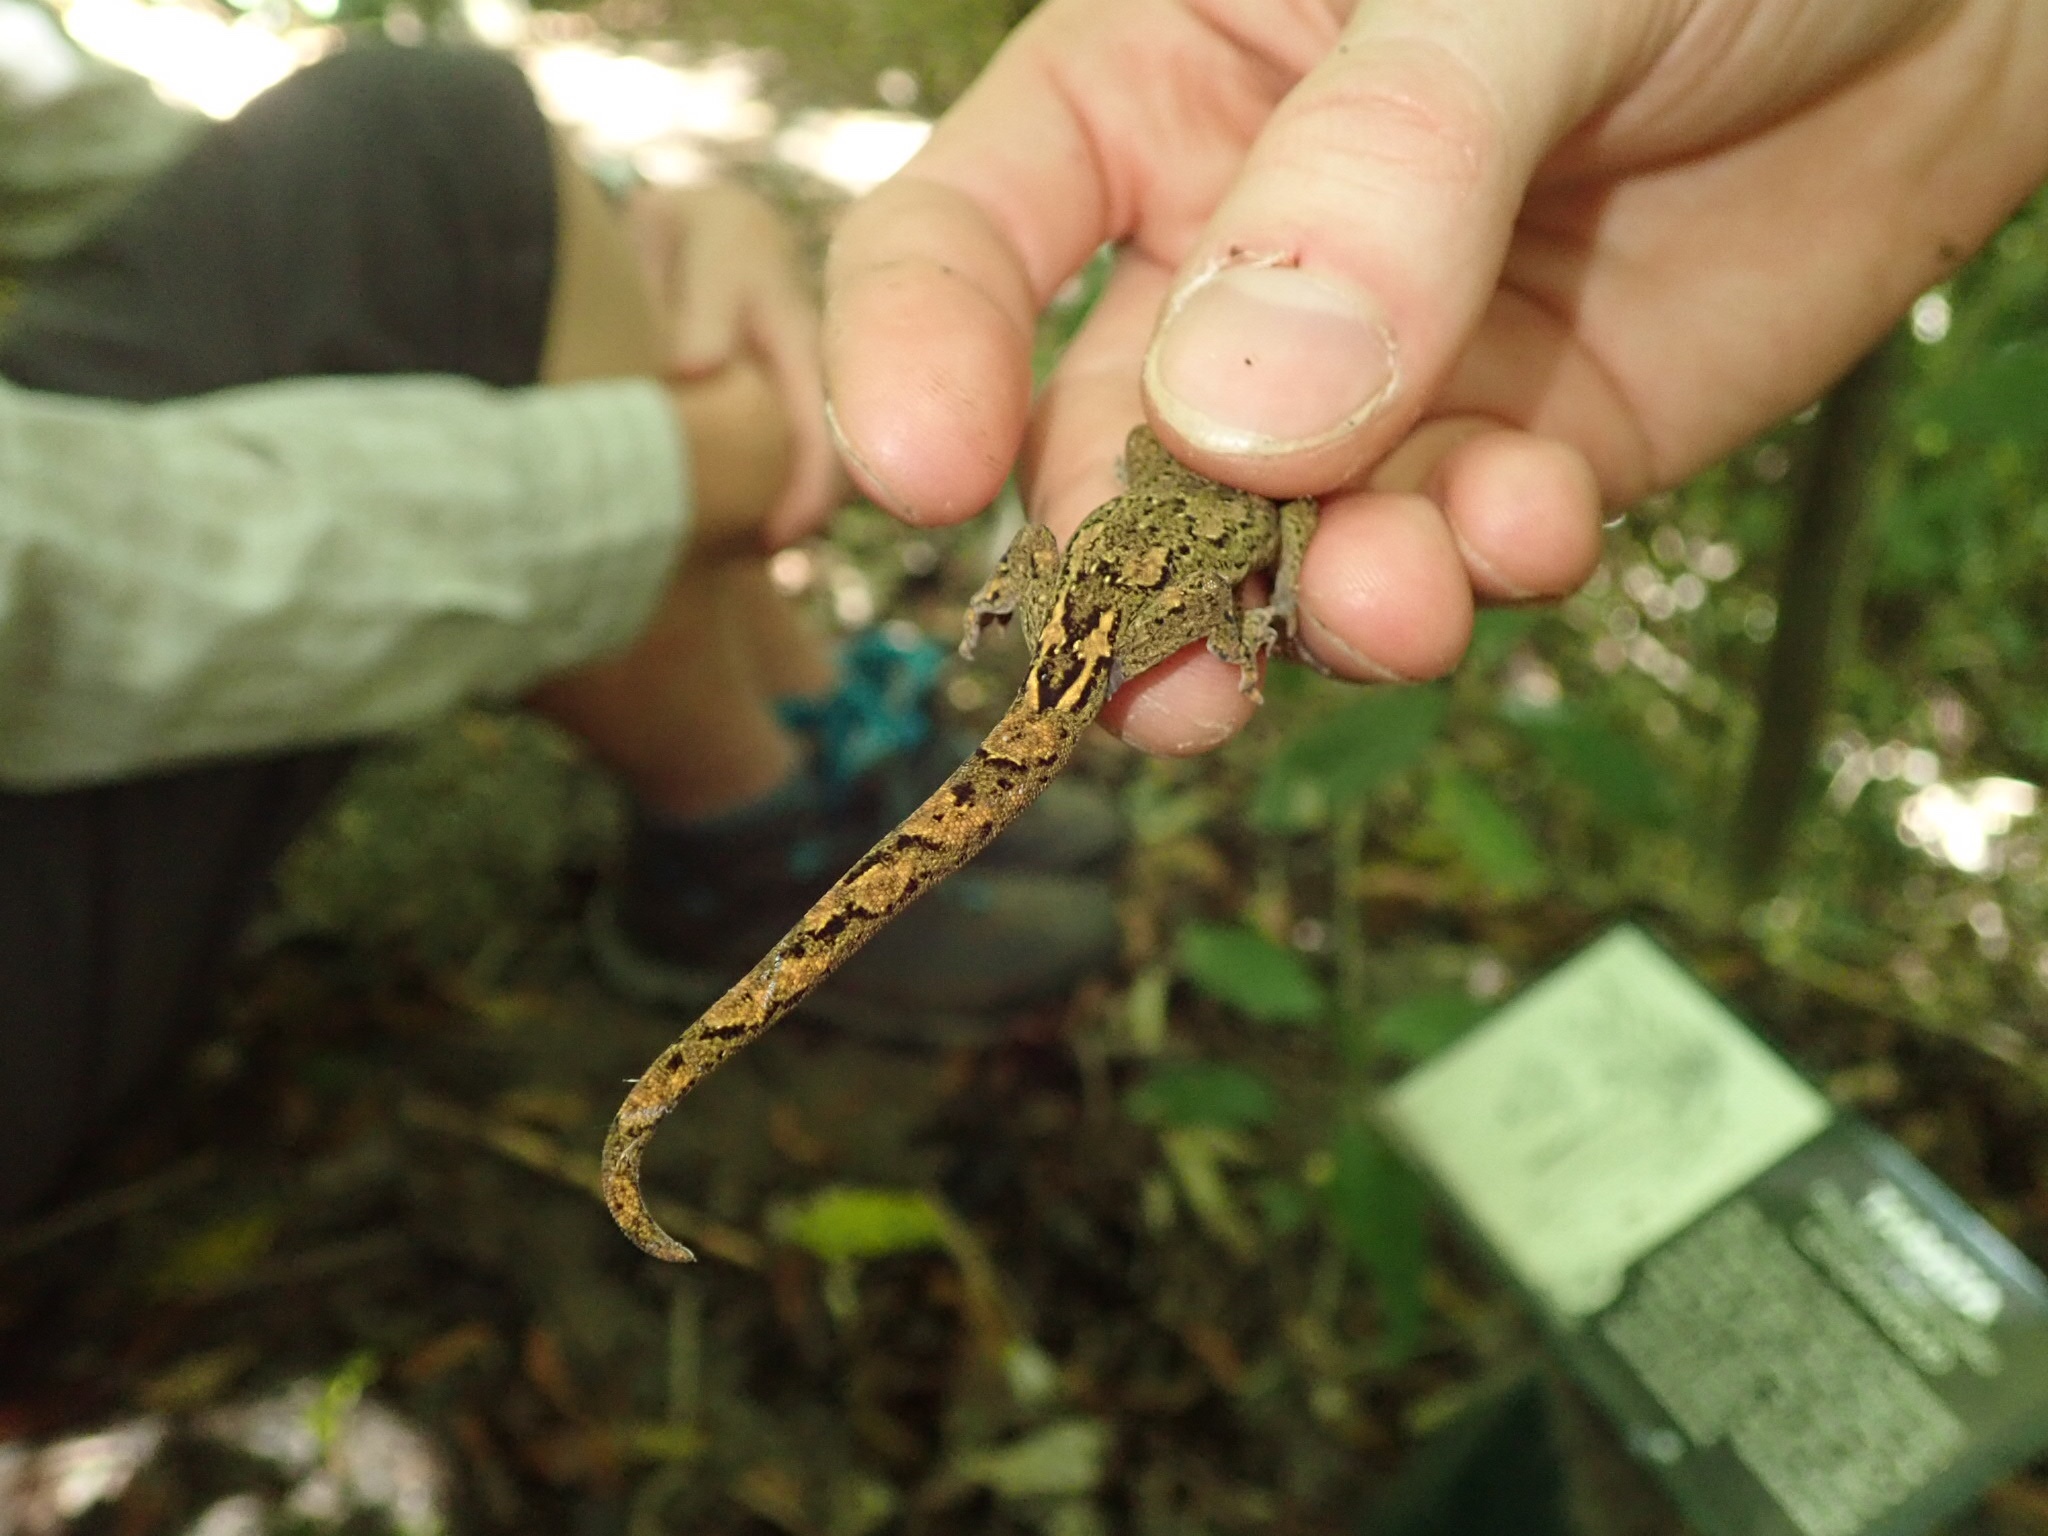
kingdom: Animalia
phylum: Chordata
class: Squamata
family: Diplodactylidae
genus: Woodworthia
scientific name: Woodworthia maculata
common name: Raukawa gecko
